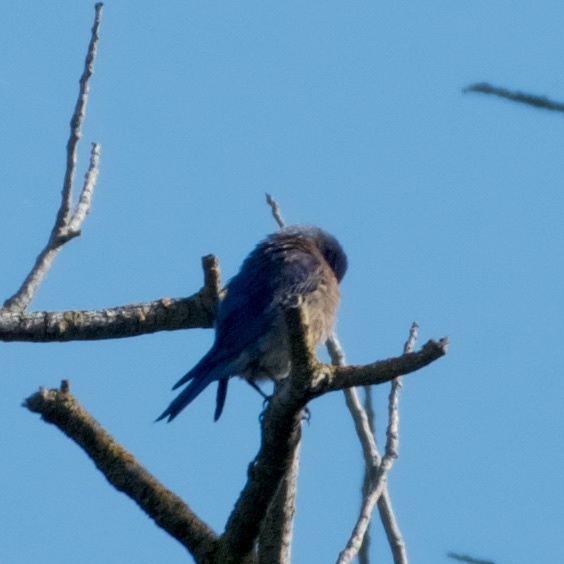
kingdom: Animalia
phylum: Chordata
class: Aves
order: Passeriformes
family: Turdidae
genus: Sialia
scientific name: Sialia mexicana
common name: Western bluebird
